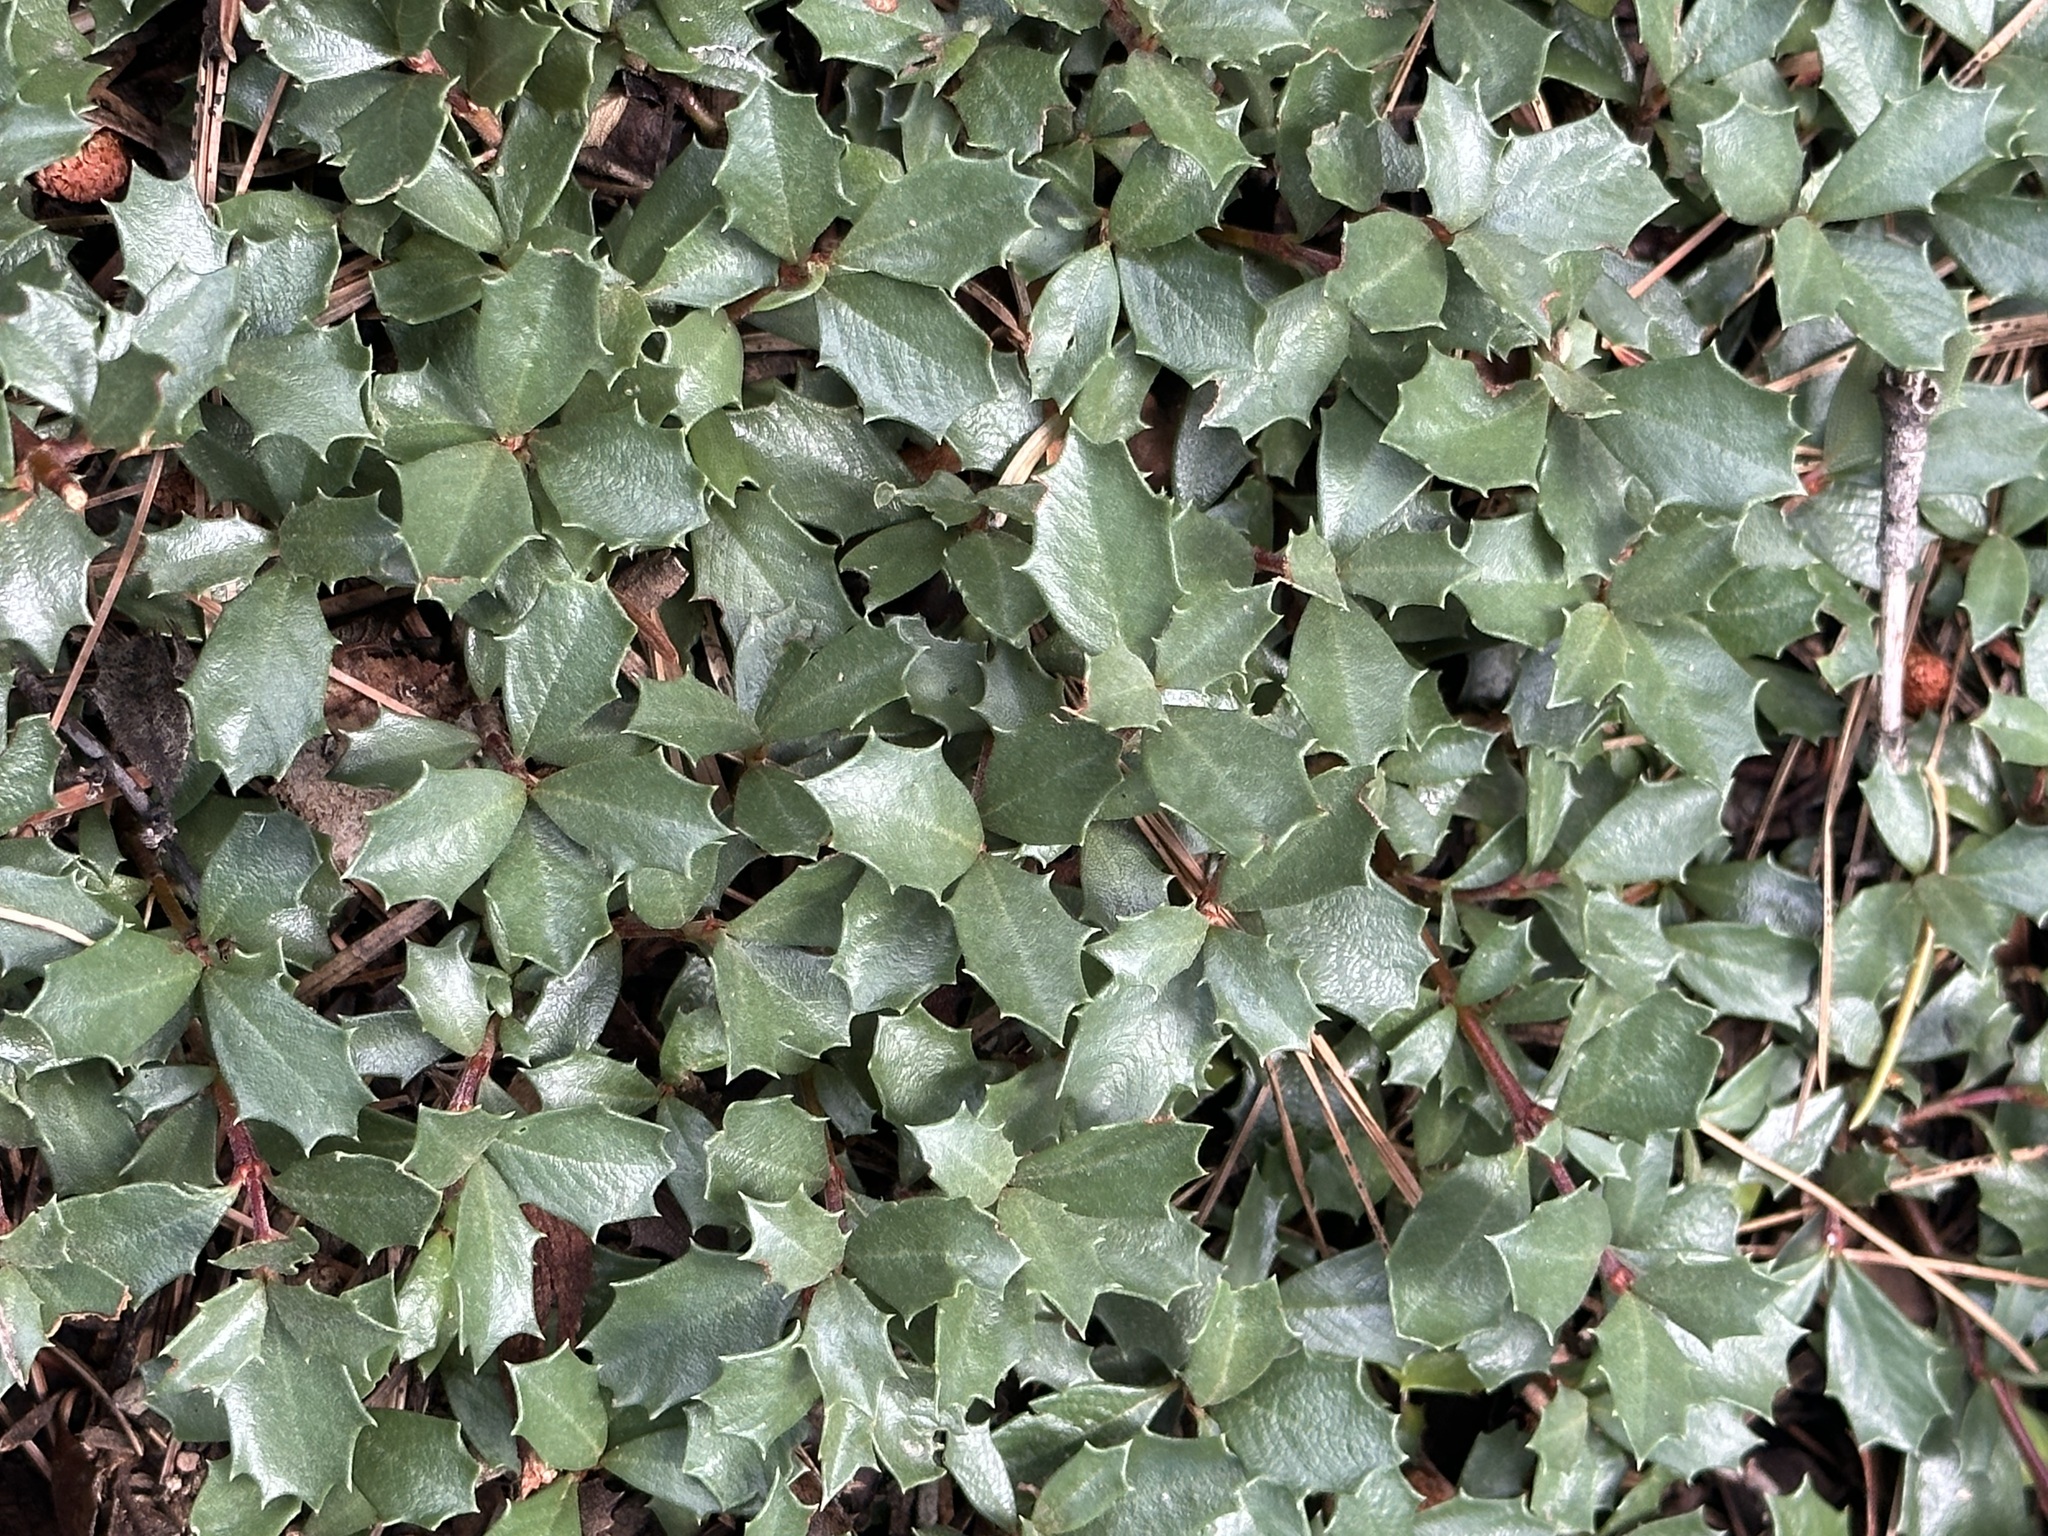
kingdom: Plantae
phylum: Tracheophyta
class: Magnoliopsida
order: Rosales
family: Rhamnaceae
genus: Ceanothus
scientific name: Ceanothus prostratus
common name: Mahala-mat
